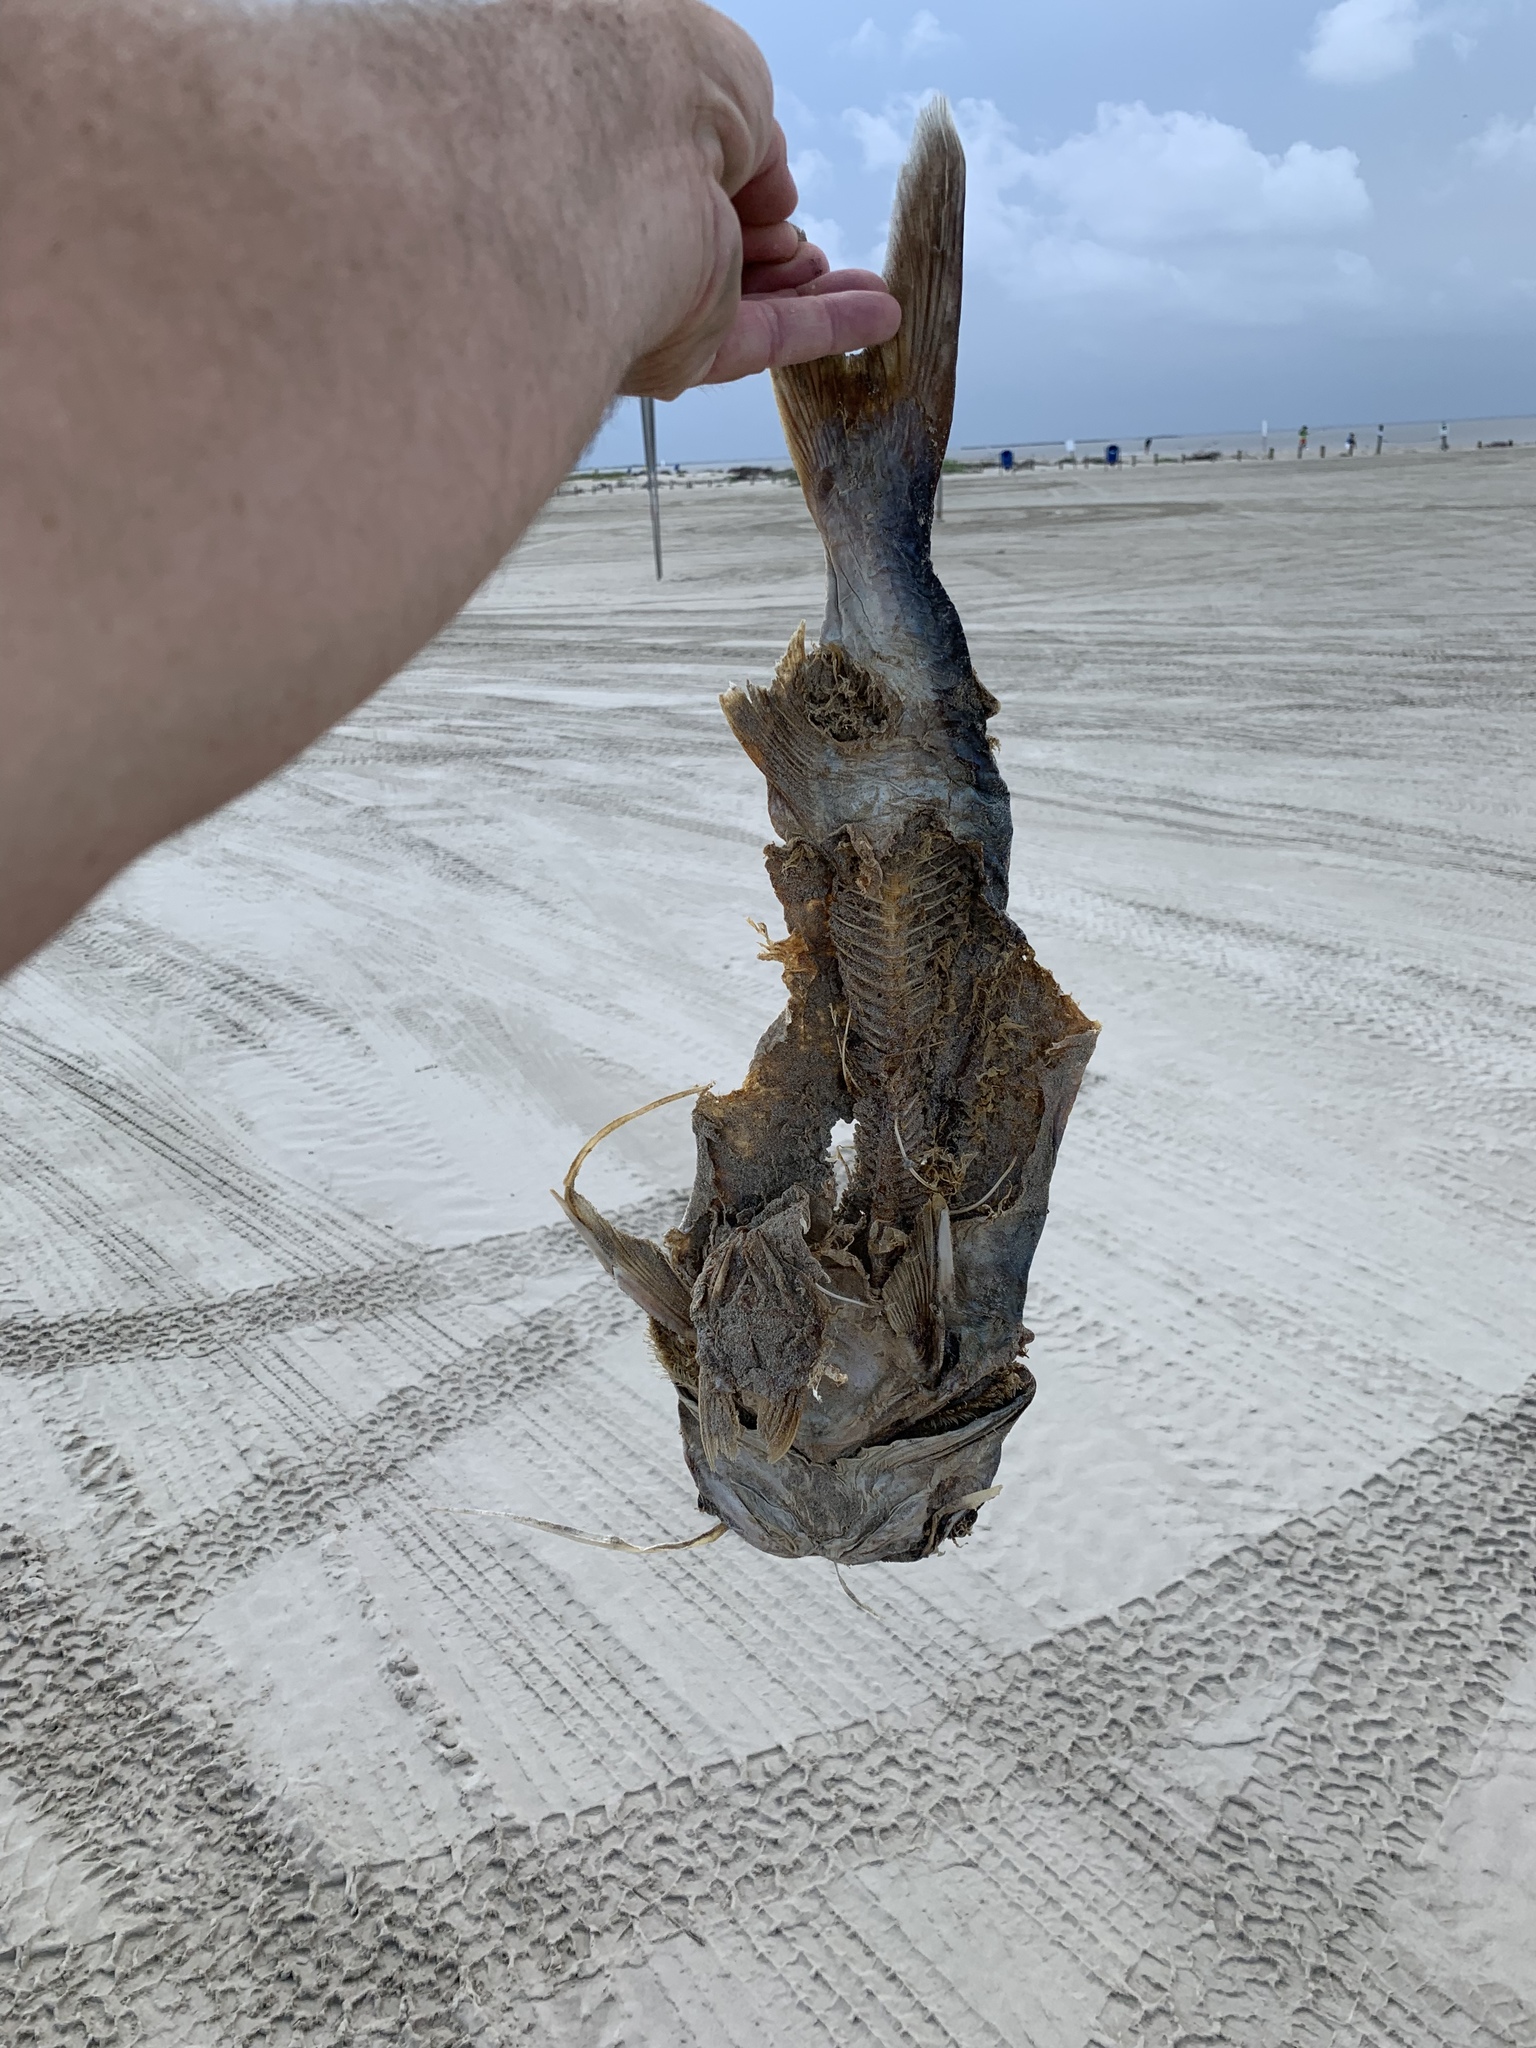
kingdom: Animalia
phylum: Chordata
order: Siluriformes
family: Ariidae
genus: Bagre
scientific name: Bagre marinus
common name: Gafftopsail sea catfish
